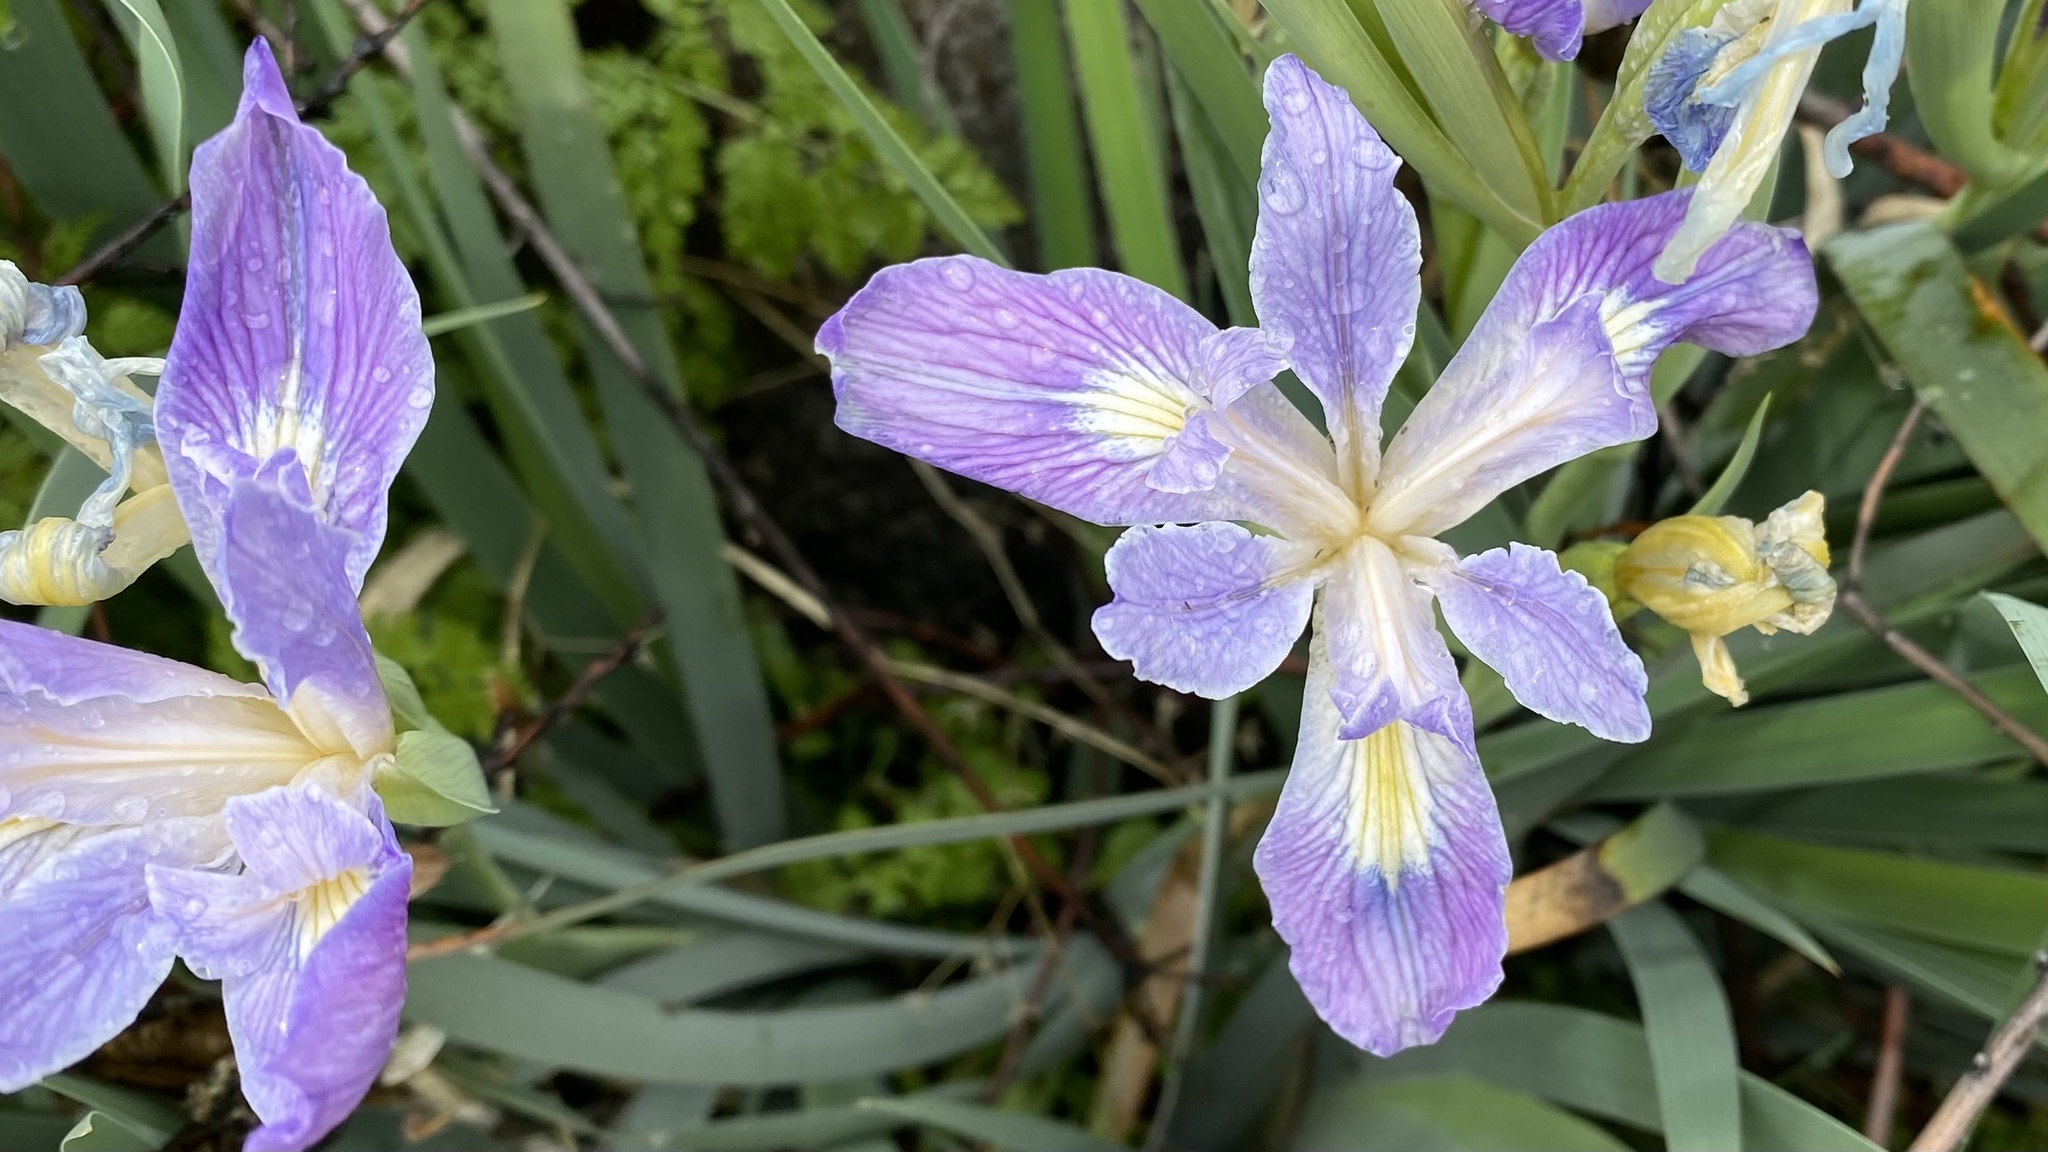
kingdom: Plantae
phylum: Tracheophyta
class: Liliopsida
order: Asparagales
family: Iridaceae
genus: Iris
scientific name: Iris munzii
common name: Munz's iris
